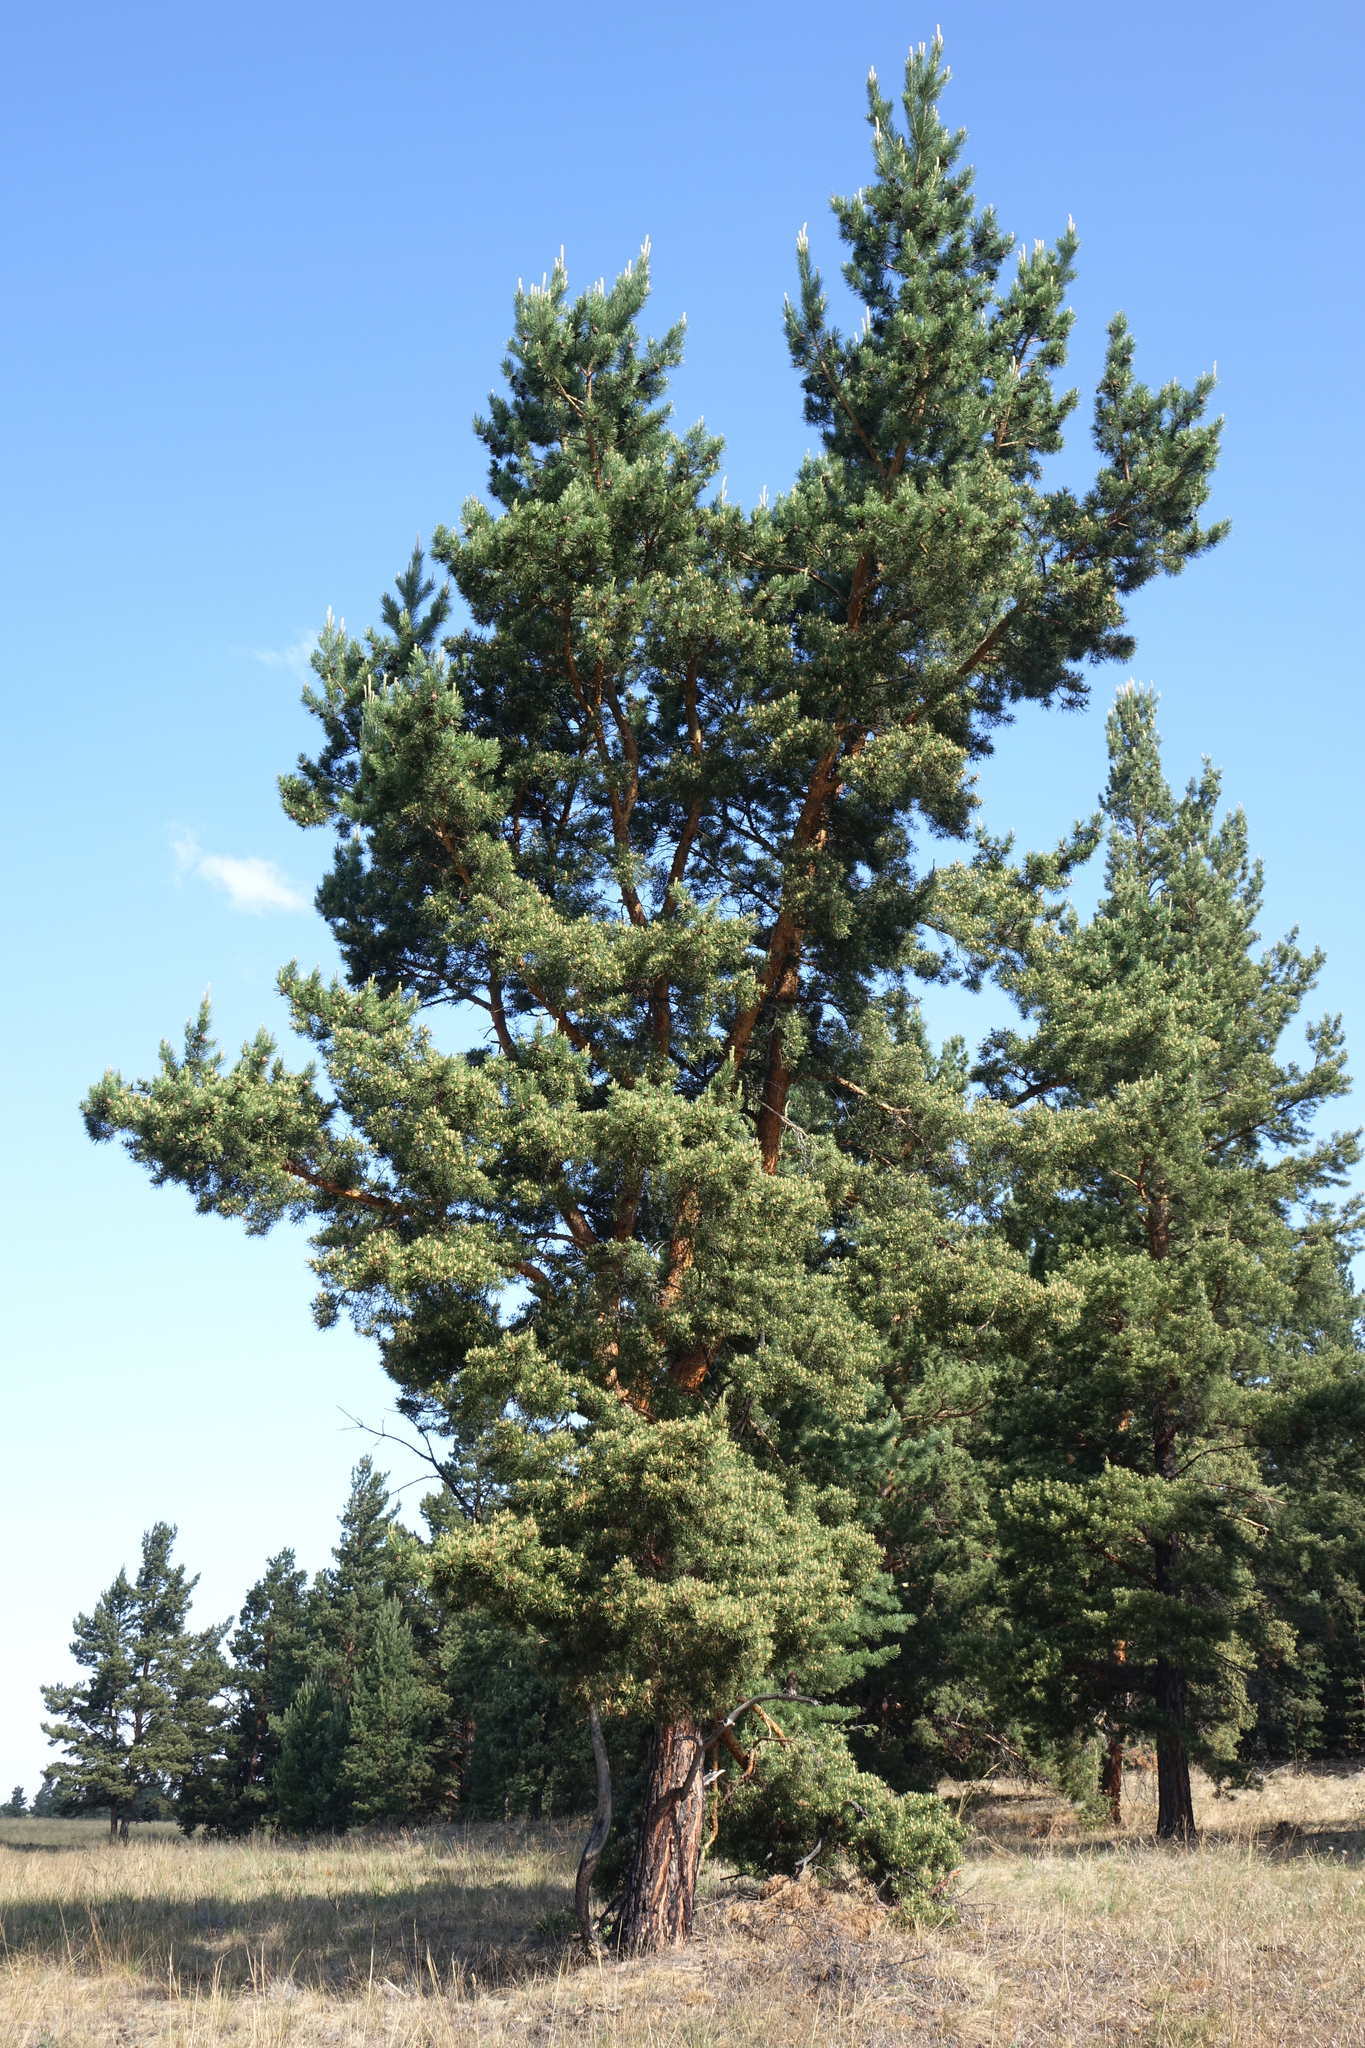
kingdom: Plantae
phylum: Tracheophyta
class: Pinopsida
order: Pinales
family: Pinaceae
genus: Pinus
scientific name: Pinus sylvestris
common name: Scots pine
